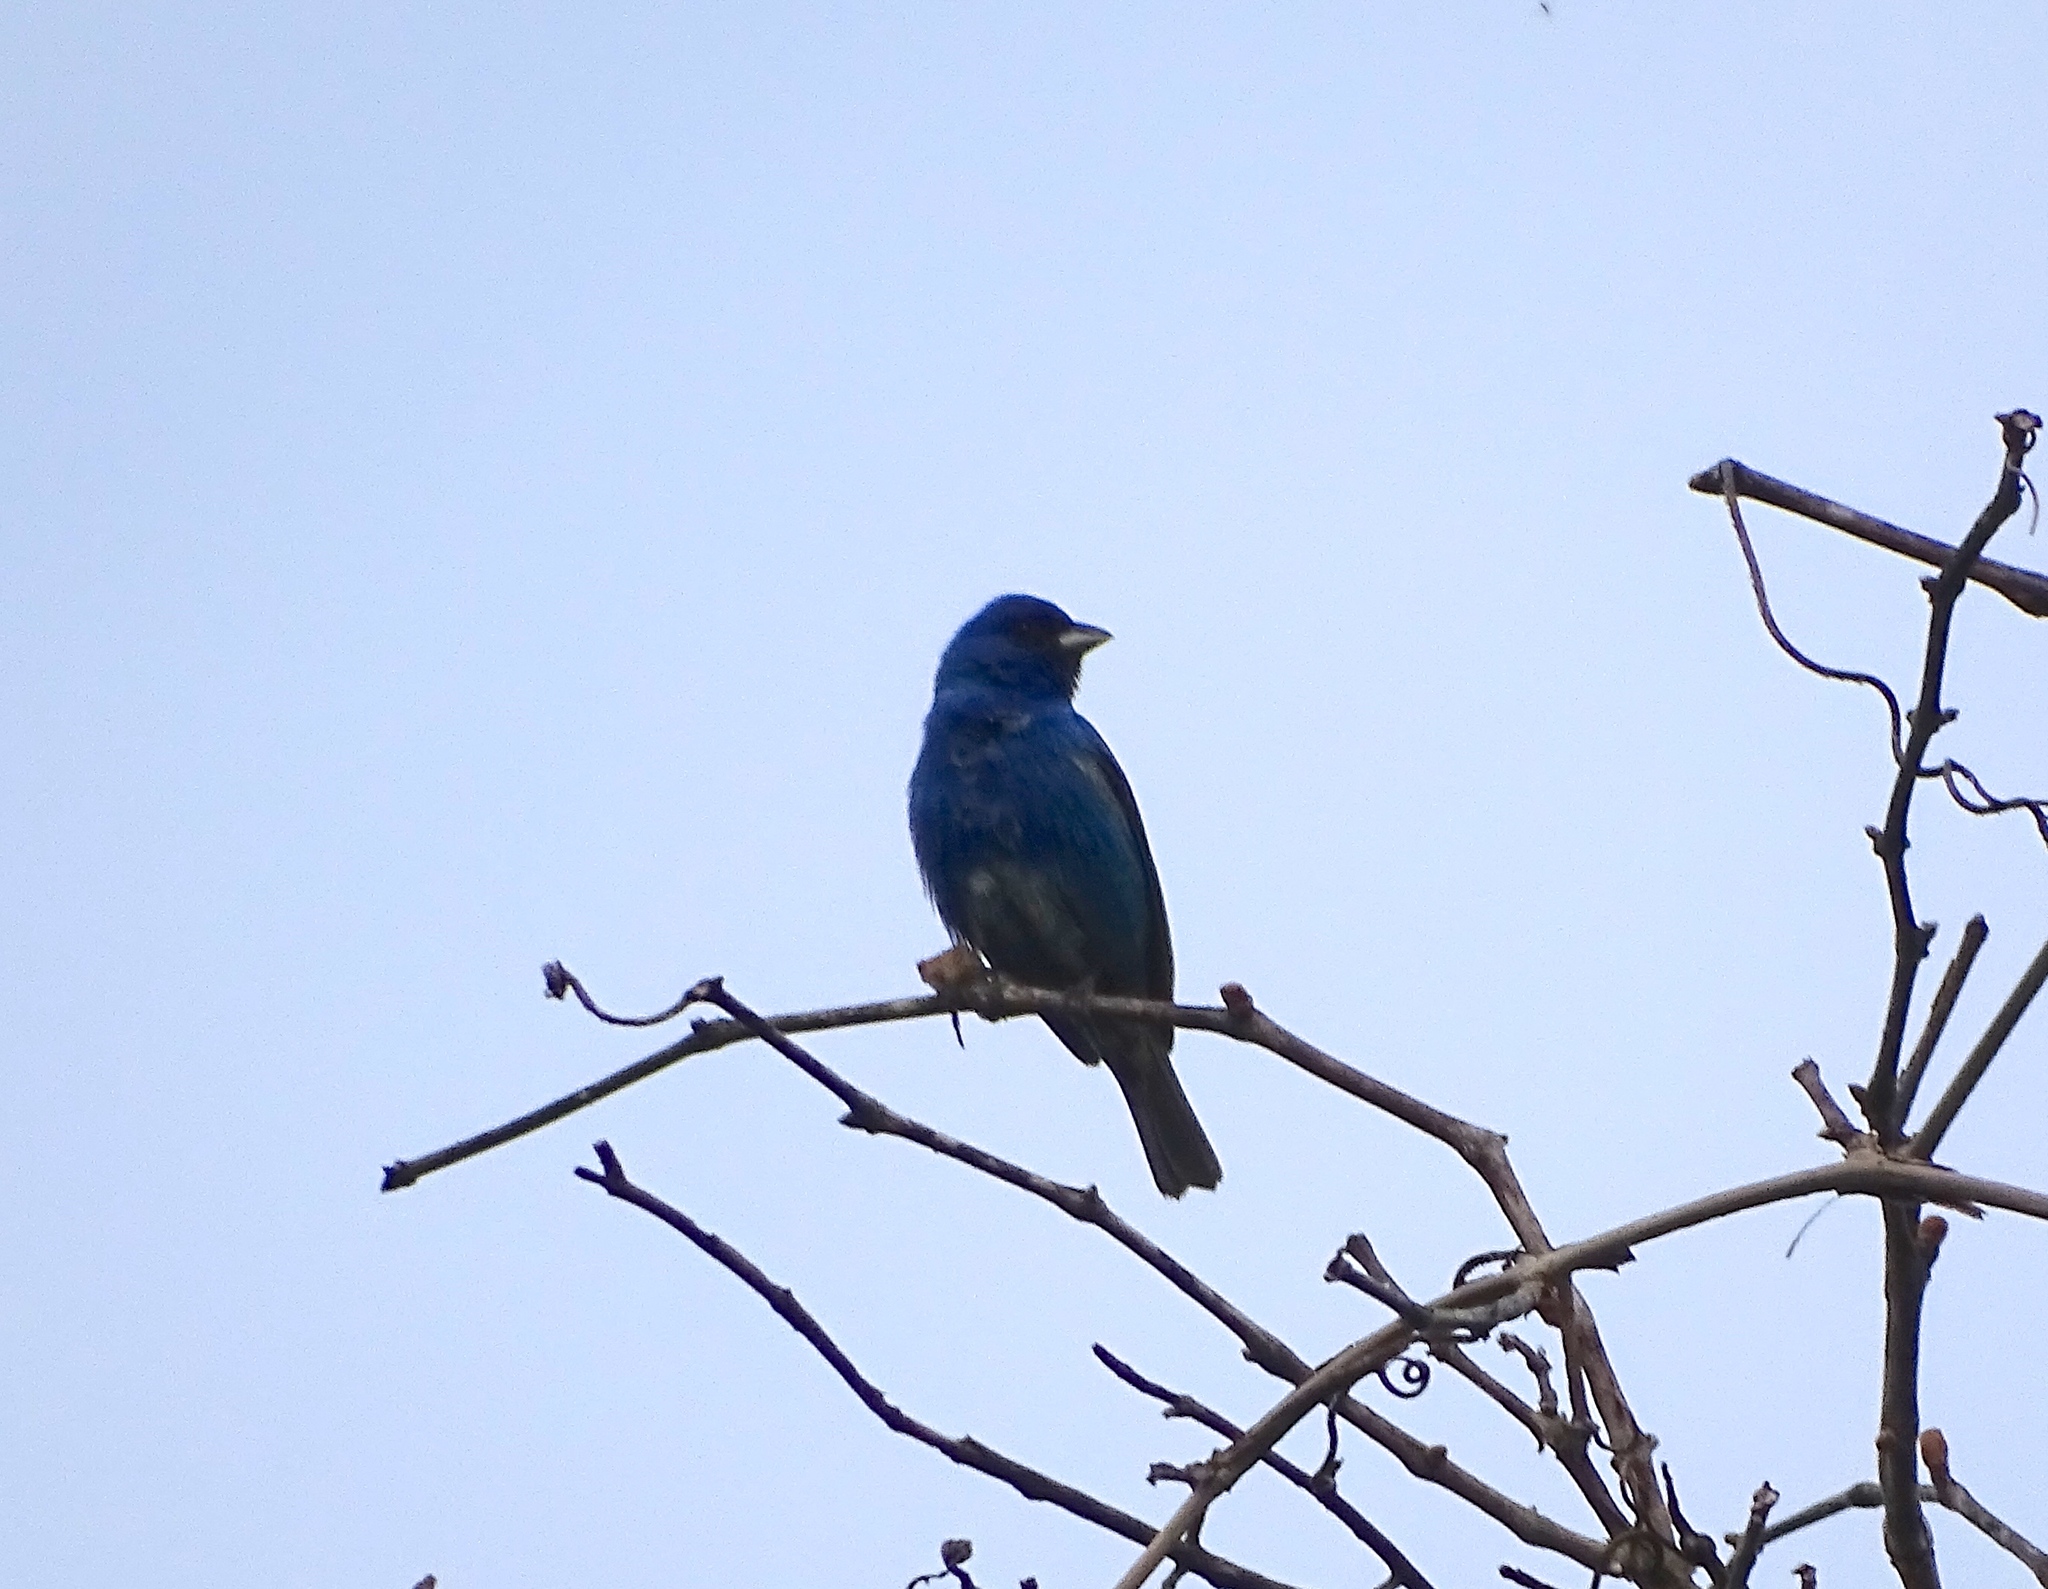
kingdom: Animalia
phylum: Chordata
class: Aves
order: Passeriformes
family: Cardinalidae
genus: Passerina
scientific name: Passerina cyanea
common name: Indigo bunting
